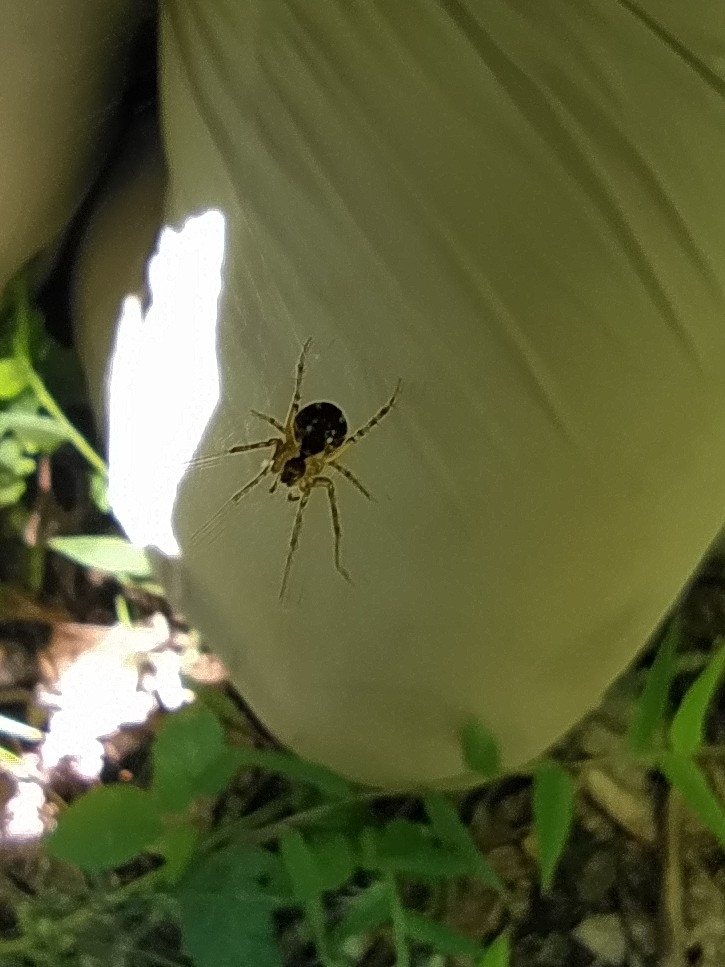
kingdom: Animalia
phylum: Arthropoda
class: Arachnida
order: Araneae
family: Araneidae
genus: Mangora
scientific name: Mangora acalypha
